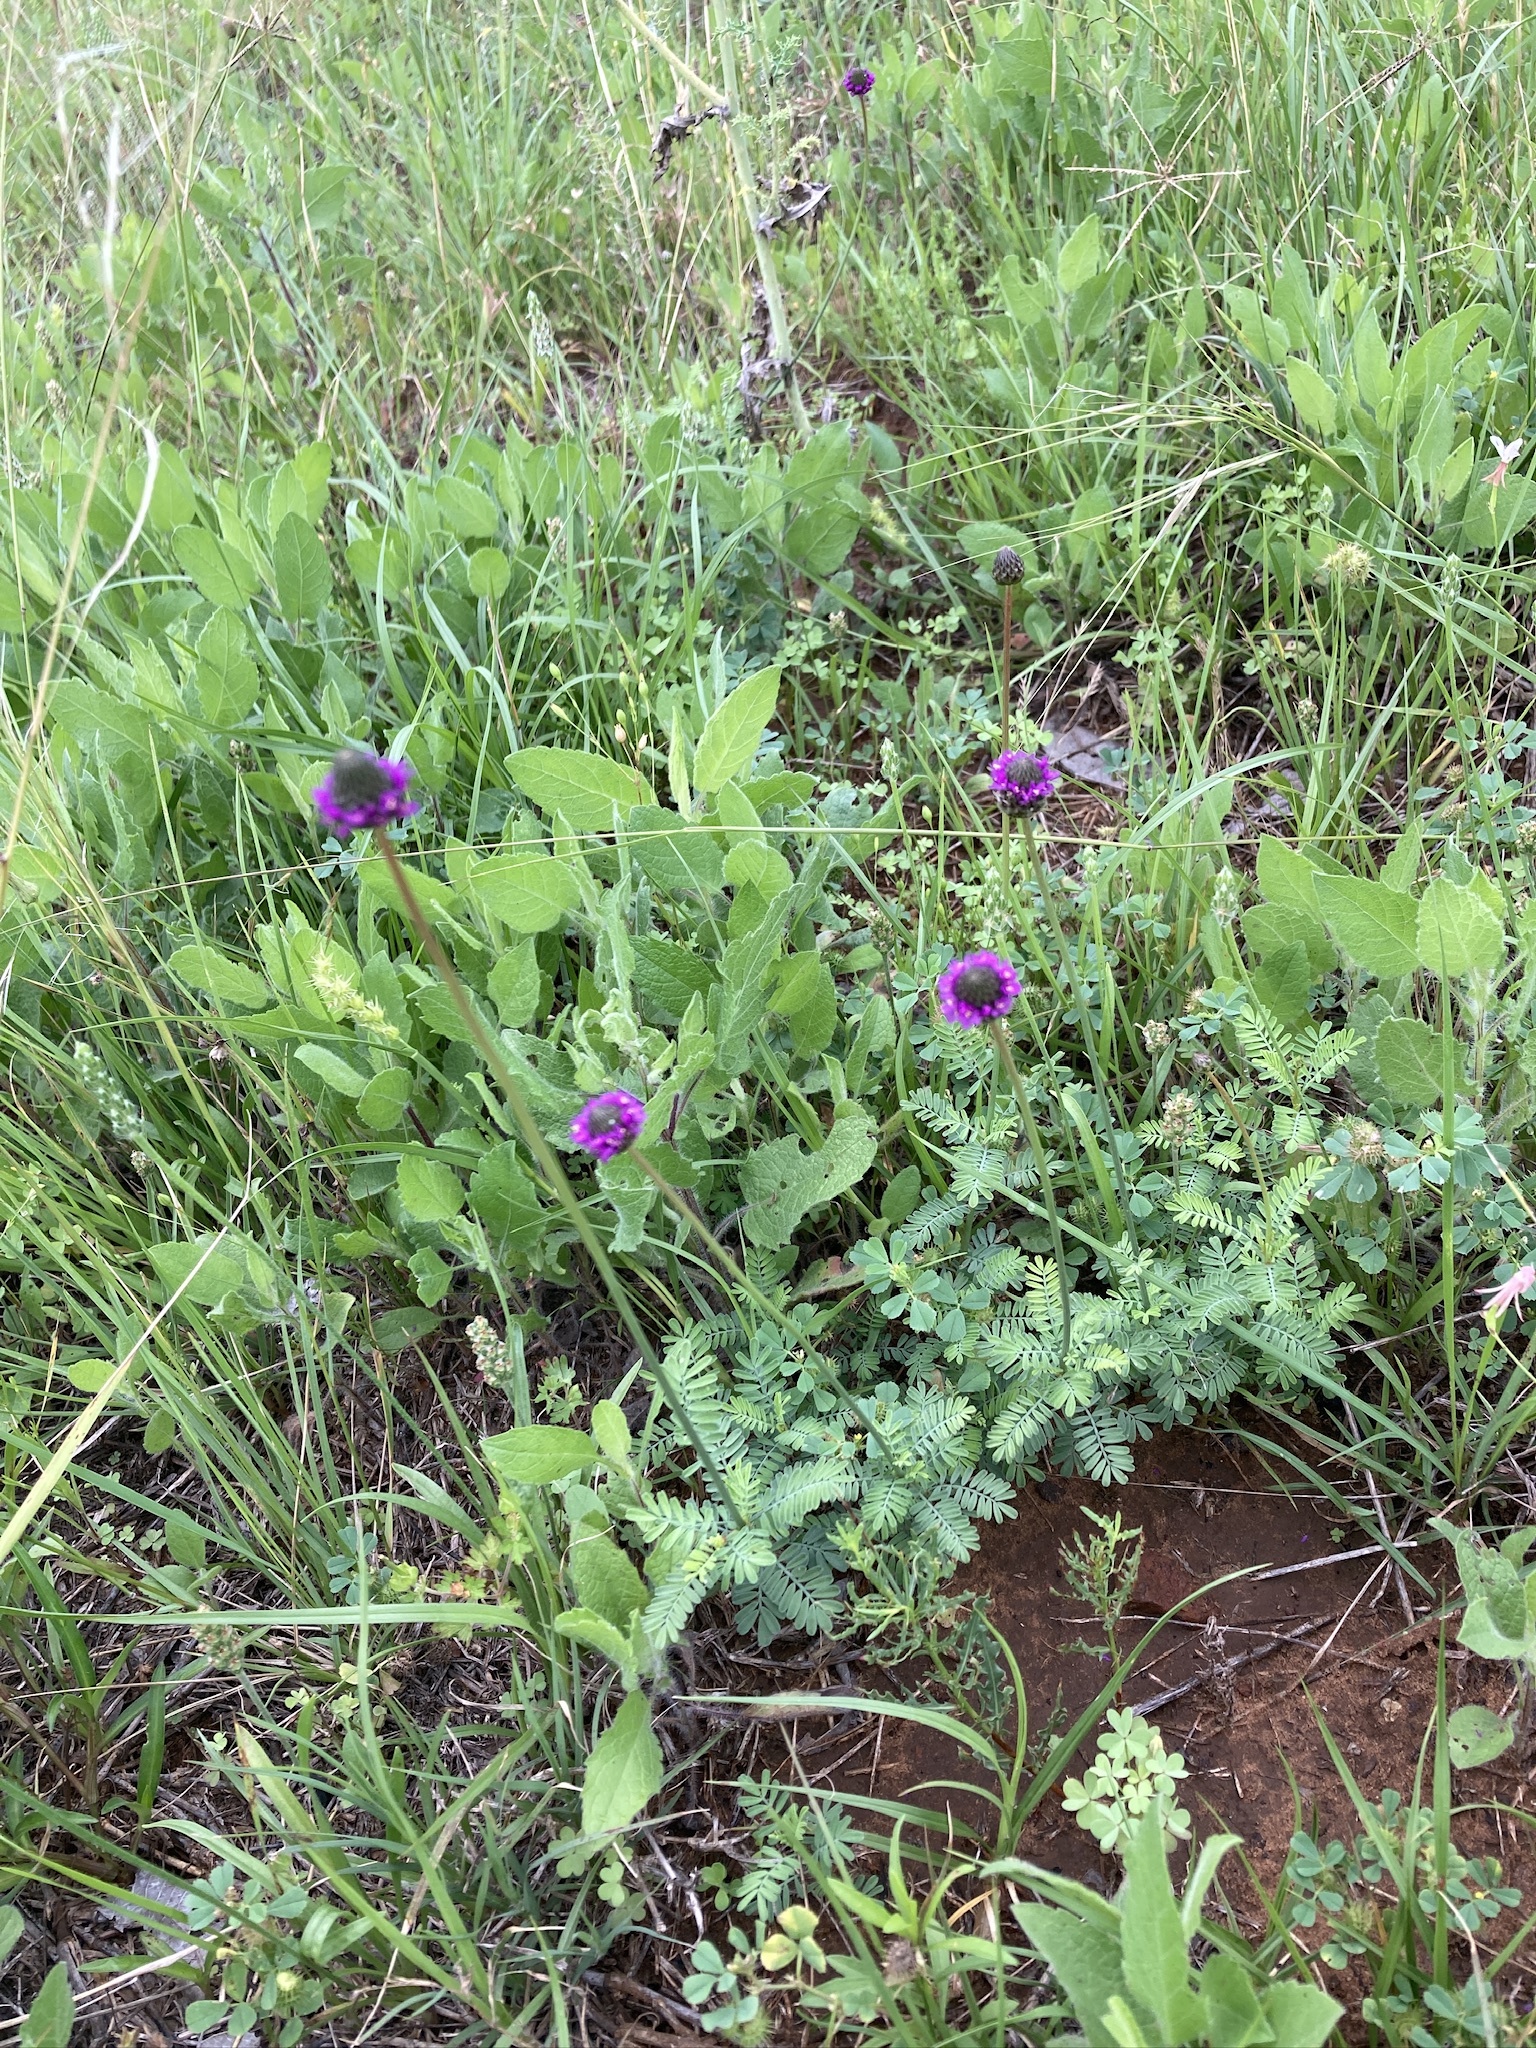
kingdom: Plantae
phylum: Tracheophyta
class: Magnoliopsida
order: Fabales
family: Fabaceae
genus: Dalea
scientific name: Dalea emarginata
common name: Wedgeleaf prairie clover
